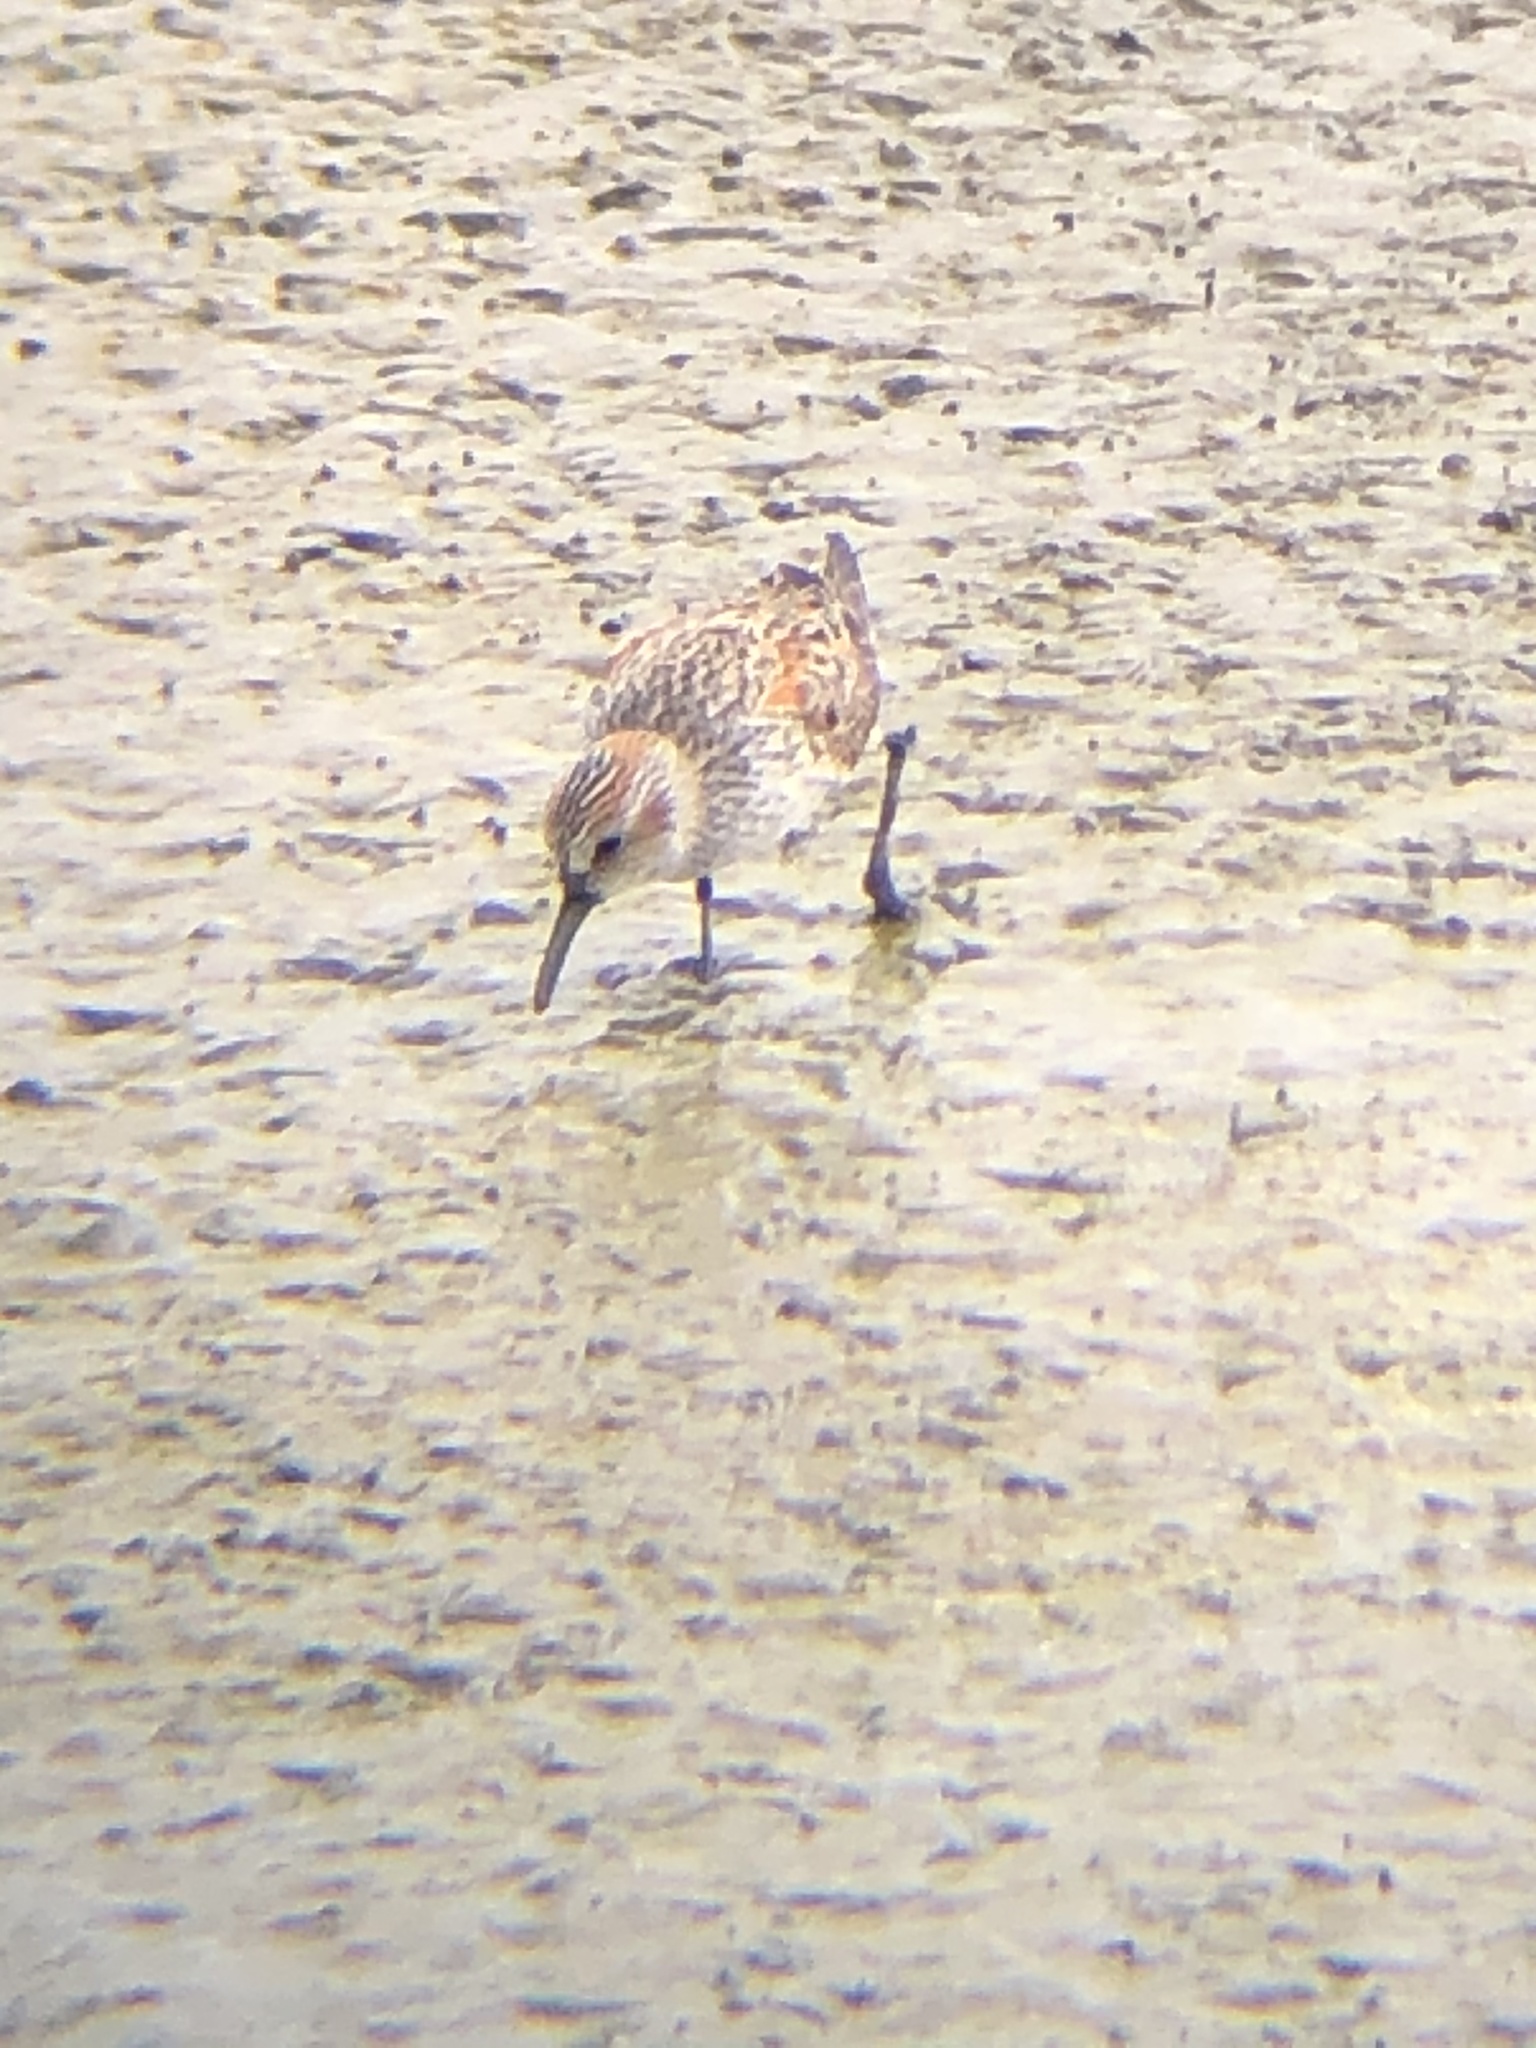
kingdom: Animalia
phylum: Chordata
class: Aves
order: Charadriiformes
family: Scolopacidae
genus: Calidris
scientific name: Calidris mauri
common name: Western sandpiper
